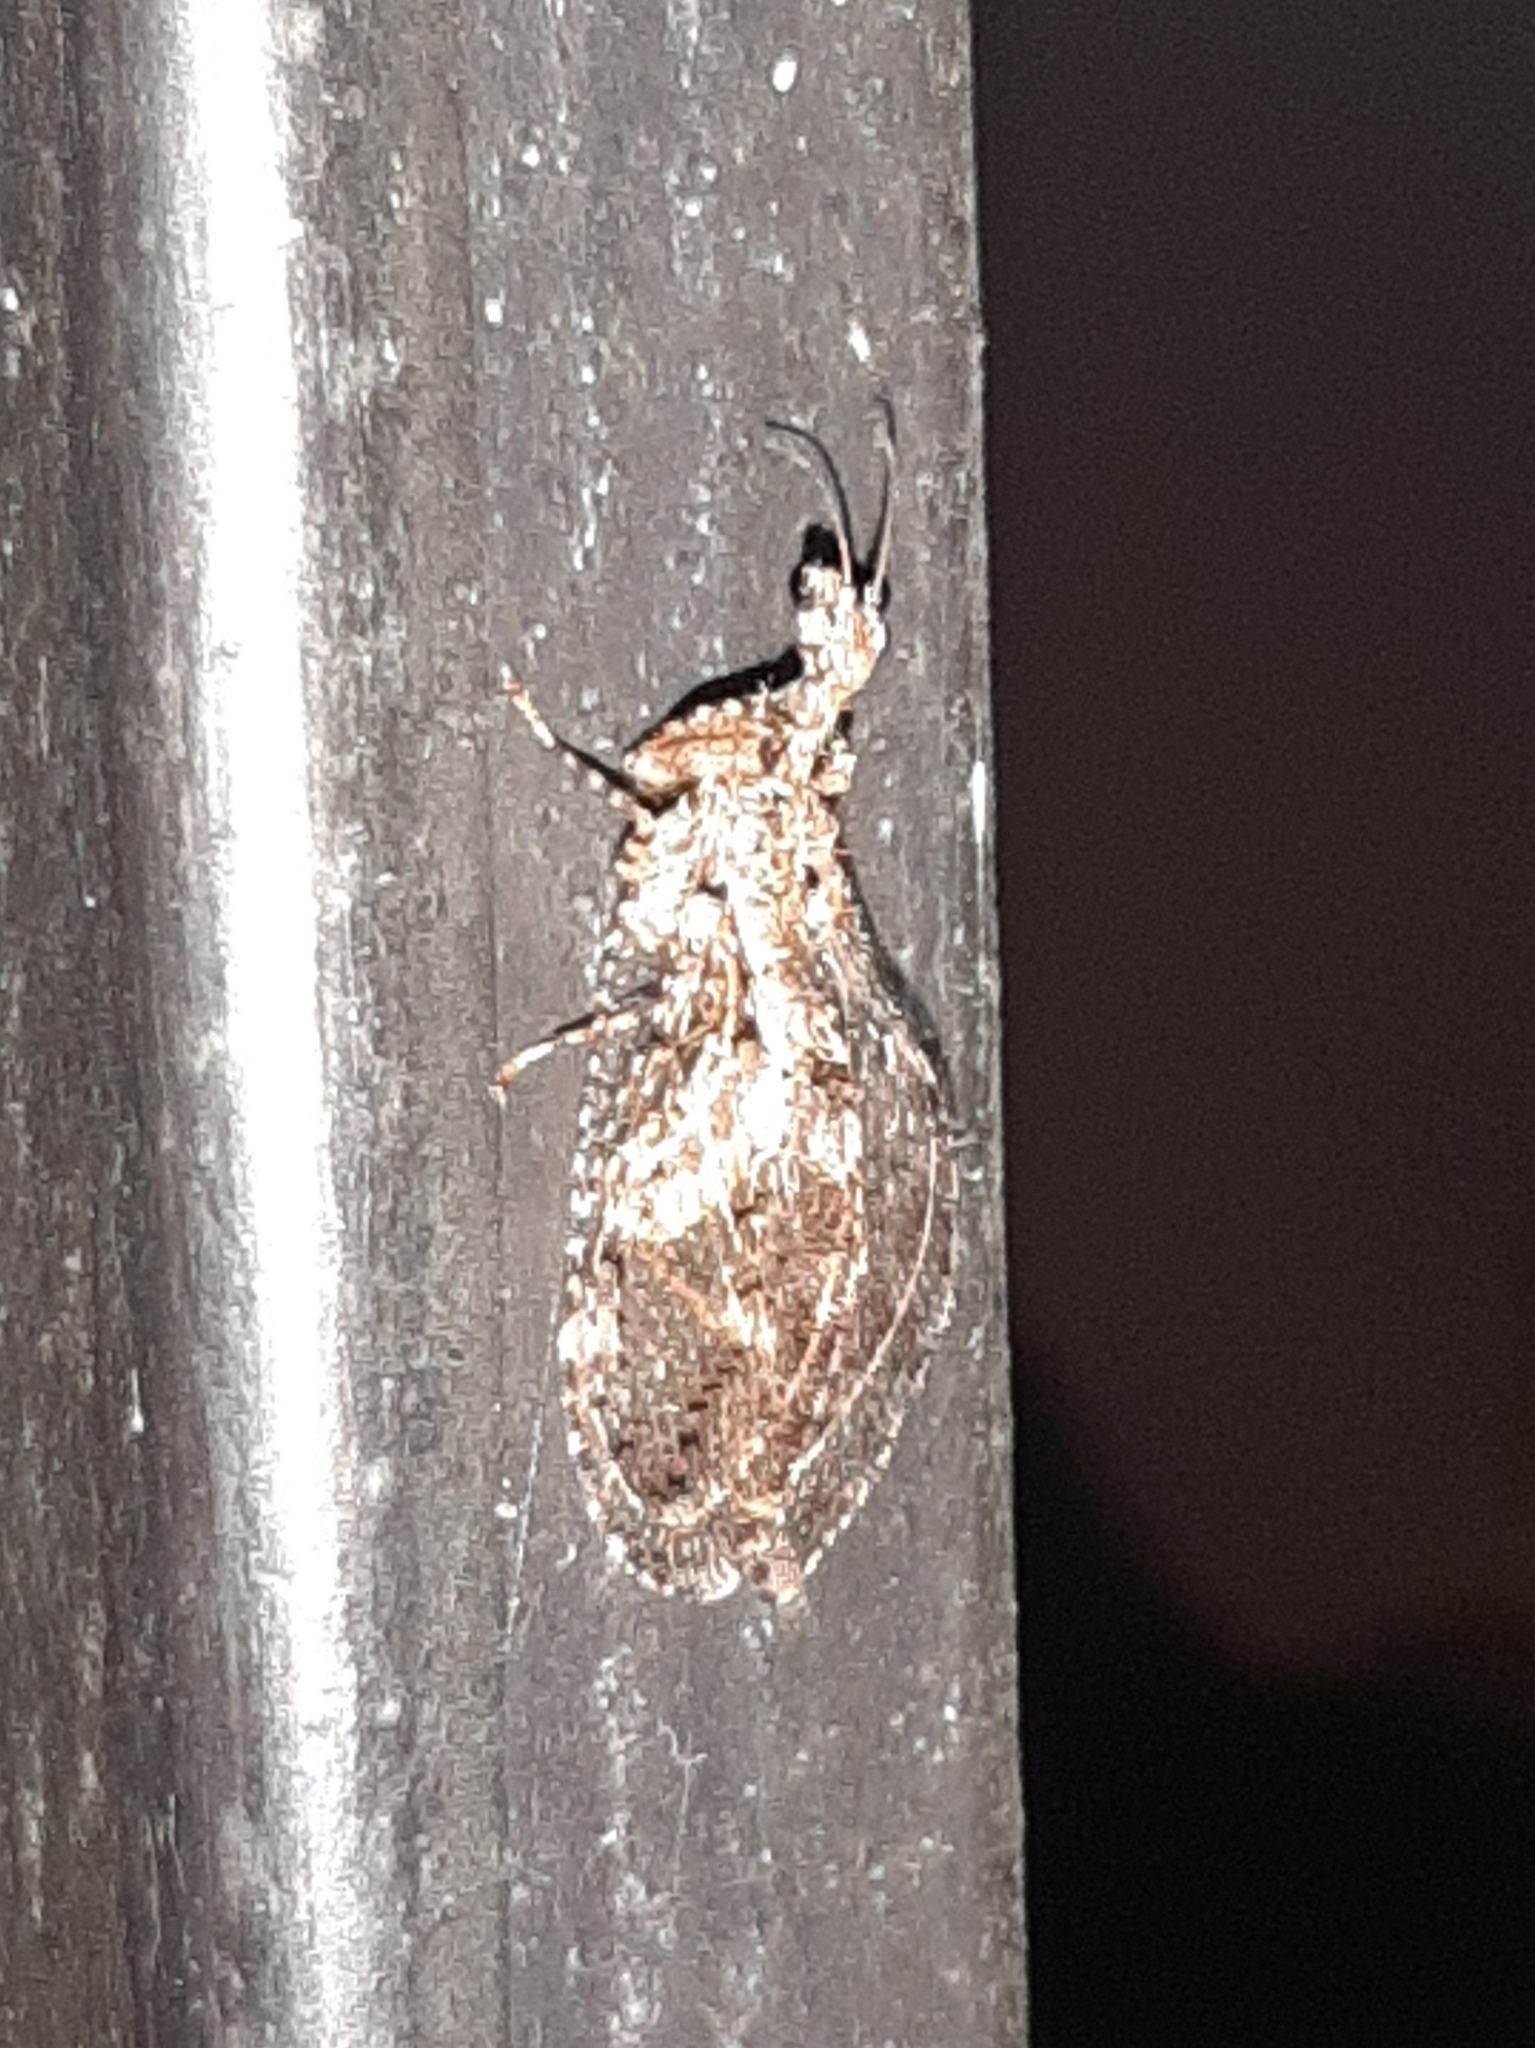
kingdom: Animalia
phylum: Arthropoda
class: Insecta
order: Neuroptera
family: Mantispidae
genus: Plega
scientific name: Plega hagenella
